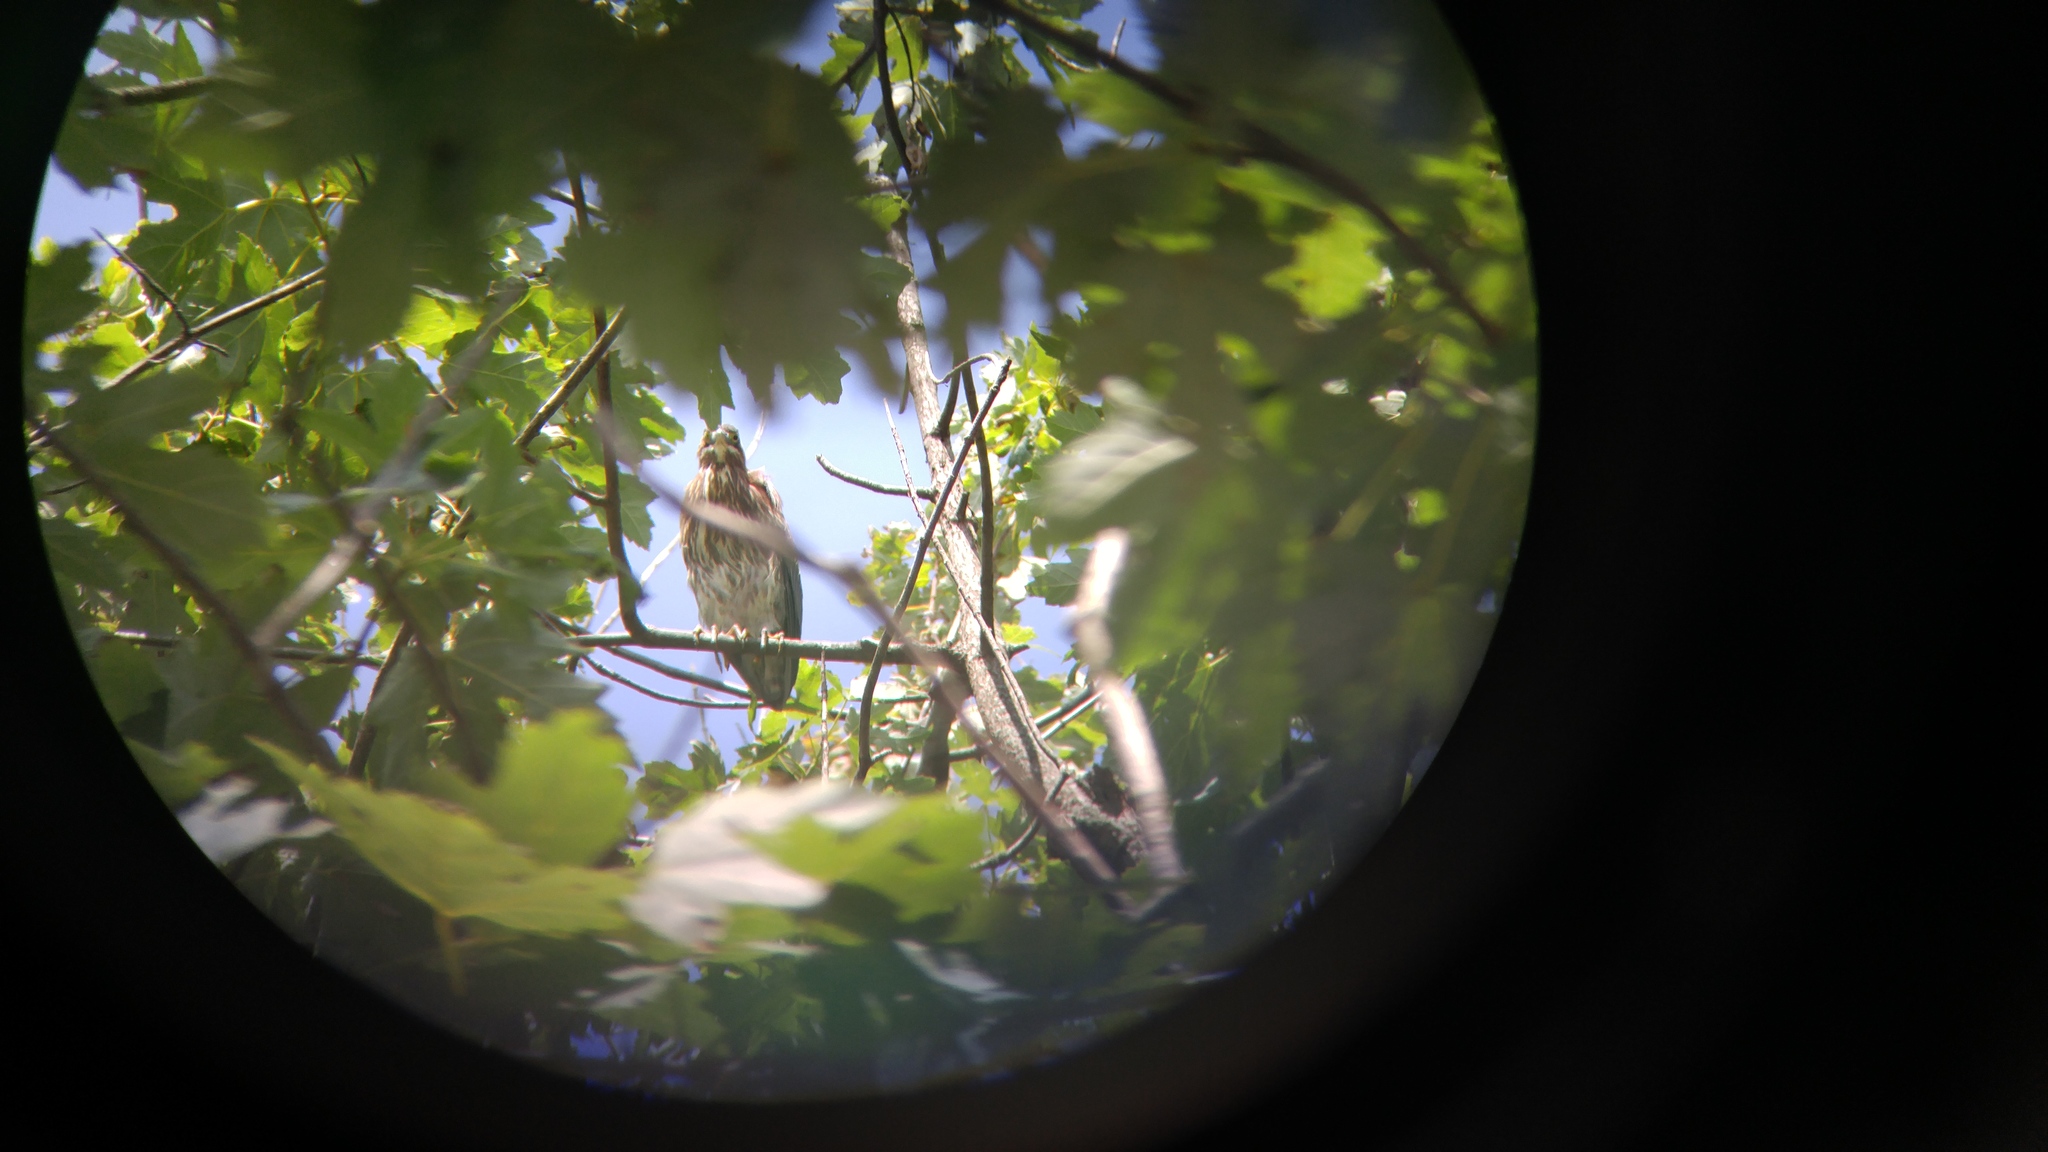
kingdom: Animalia
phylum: Chordata
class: Aves
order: Pelecaniformes
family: Ardeidae
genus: Butorides
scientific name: Butorides virescens
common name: Green heron
